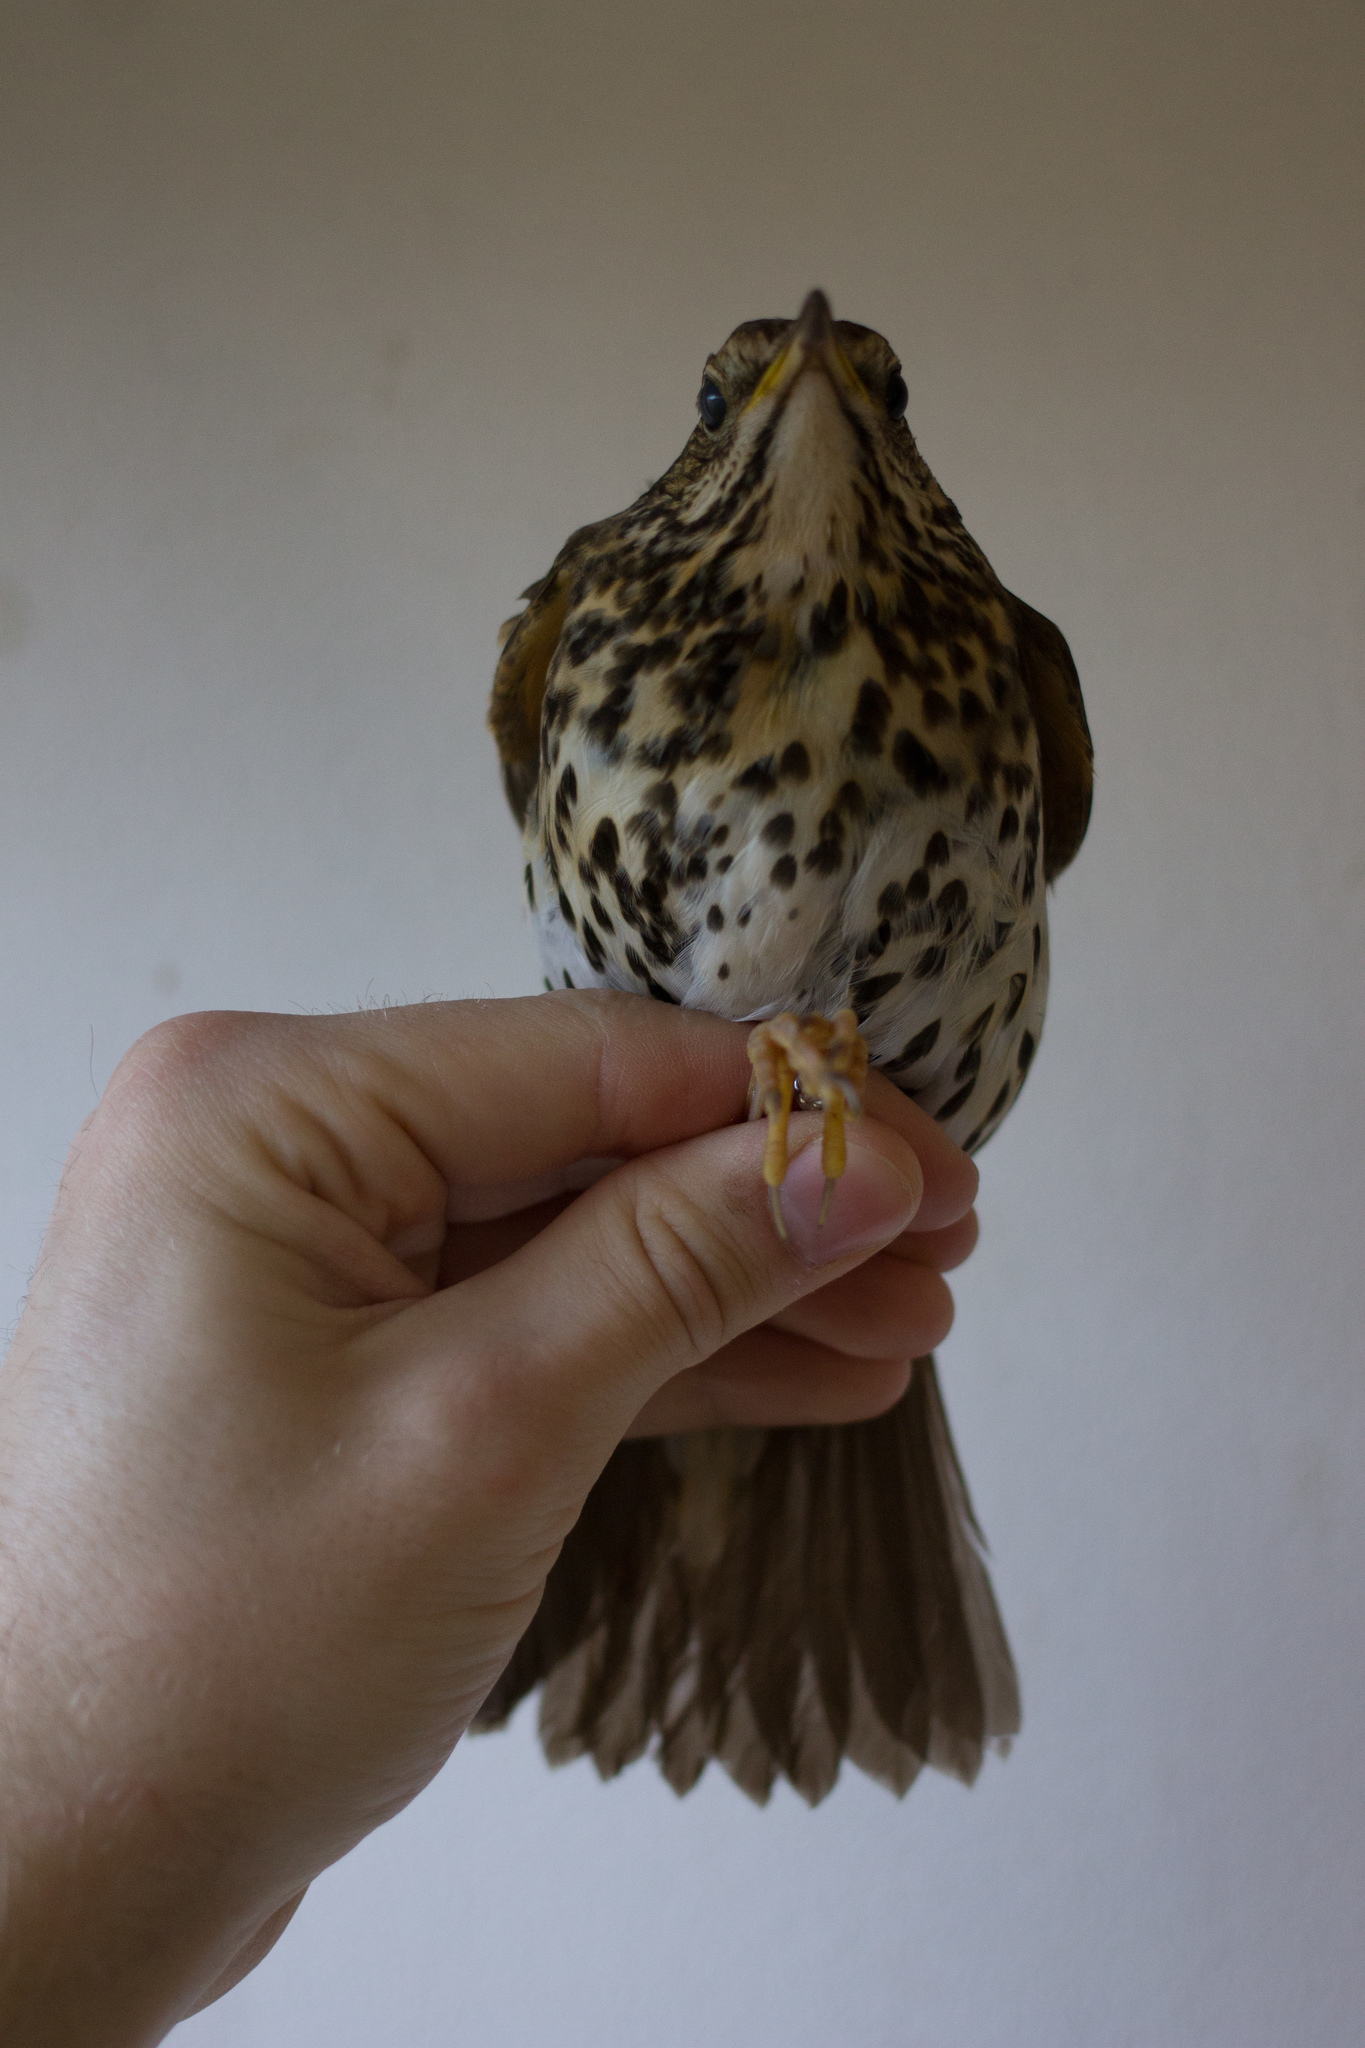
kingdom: Animalia
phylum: Chordata
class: Aves
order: Passeriformes
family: Turdidae
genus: Turdus
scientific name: Turdus philomelos
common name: Song thrush
